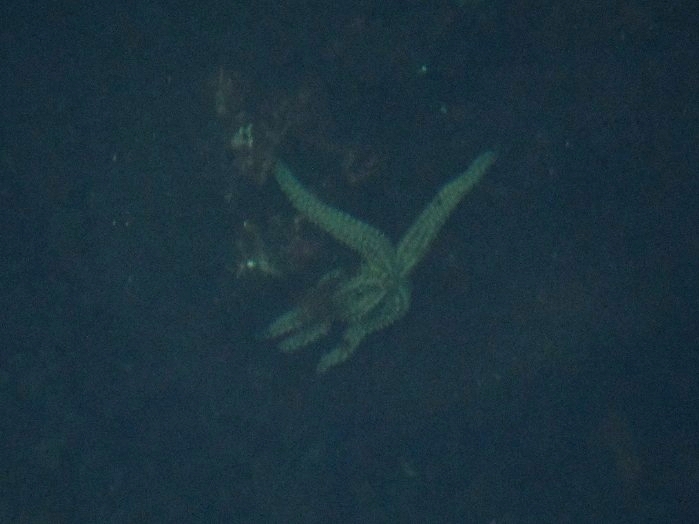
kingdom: Animalia
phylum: Echinodermata
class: Asteroidea
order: Forcipulatida
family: Asteriidae
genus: Marthasterias
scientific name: Marthasterias glacialis
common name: Spiny starfish
